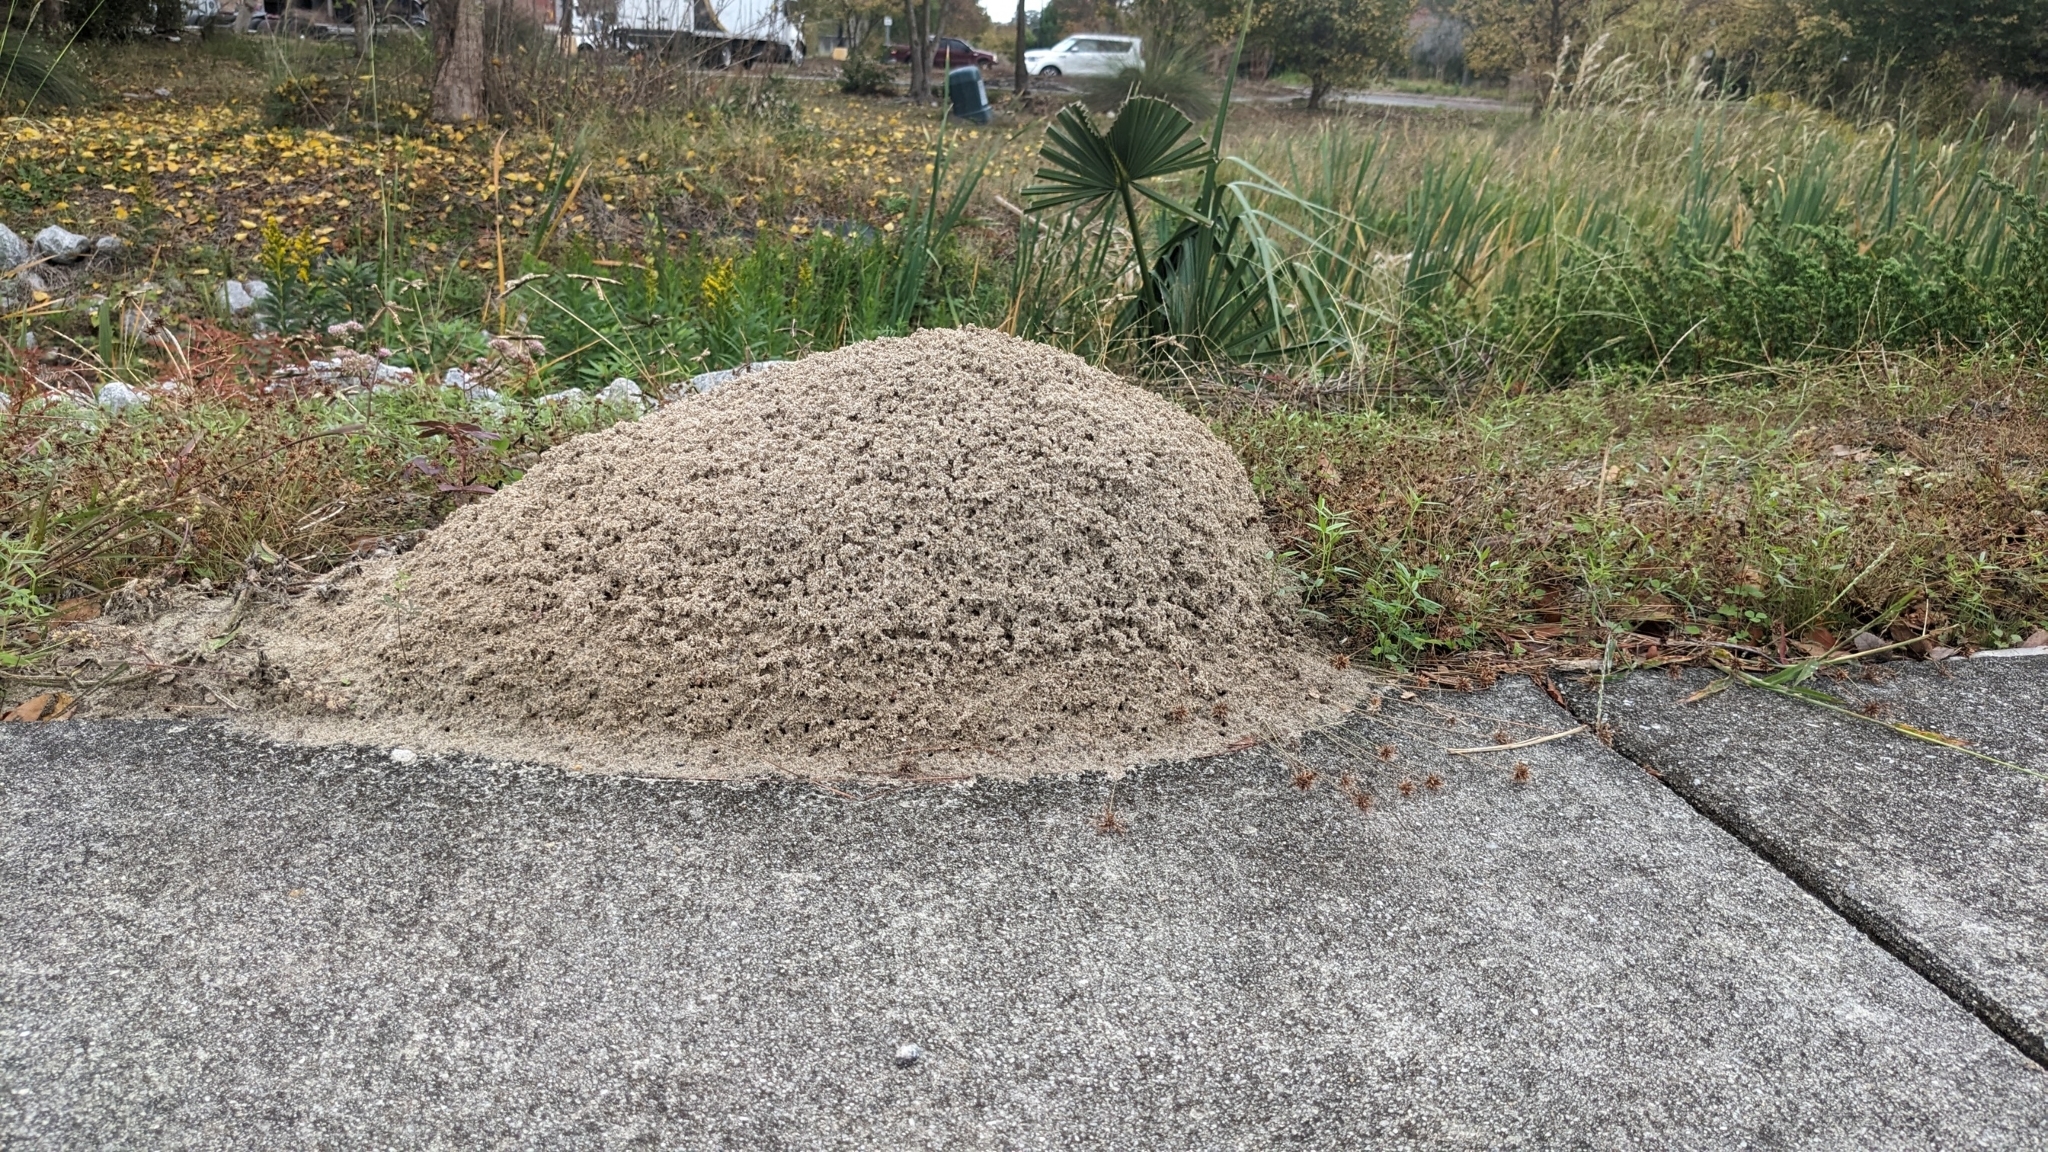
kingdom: Animalia
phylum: Arthropoda
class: Insecta
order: Hymenoptera
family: Formicidae
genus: Solenopsis
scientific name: Solenopsis invicta
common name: Red imported fire ant
